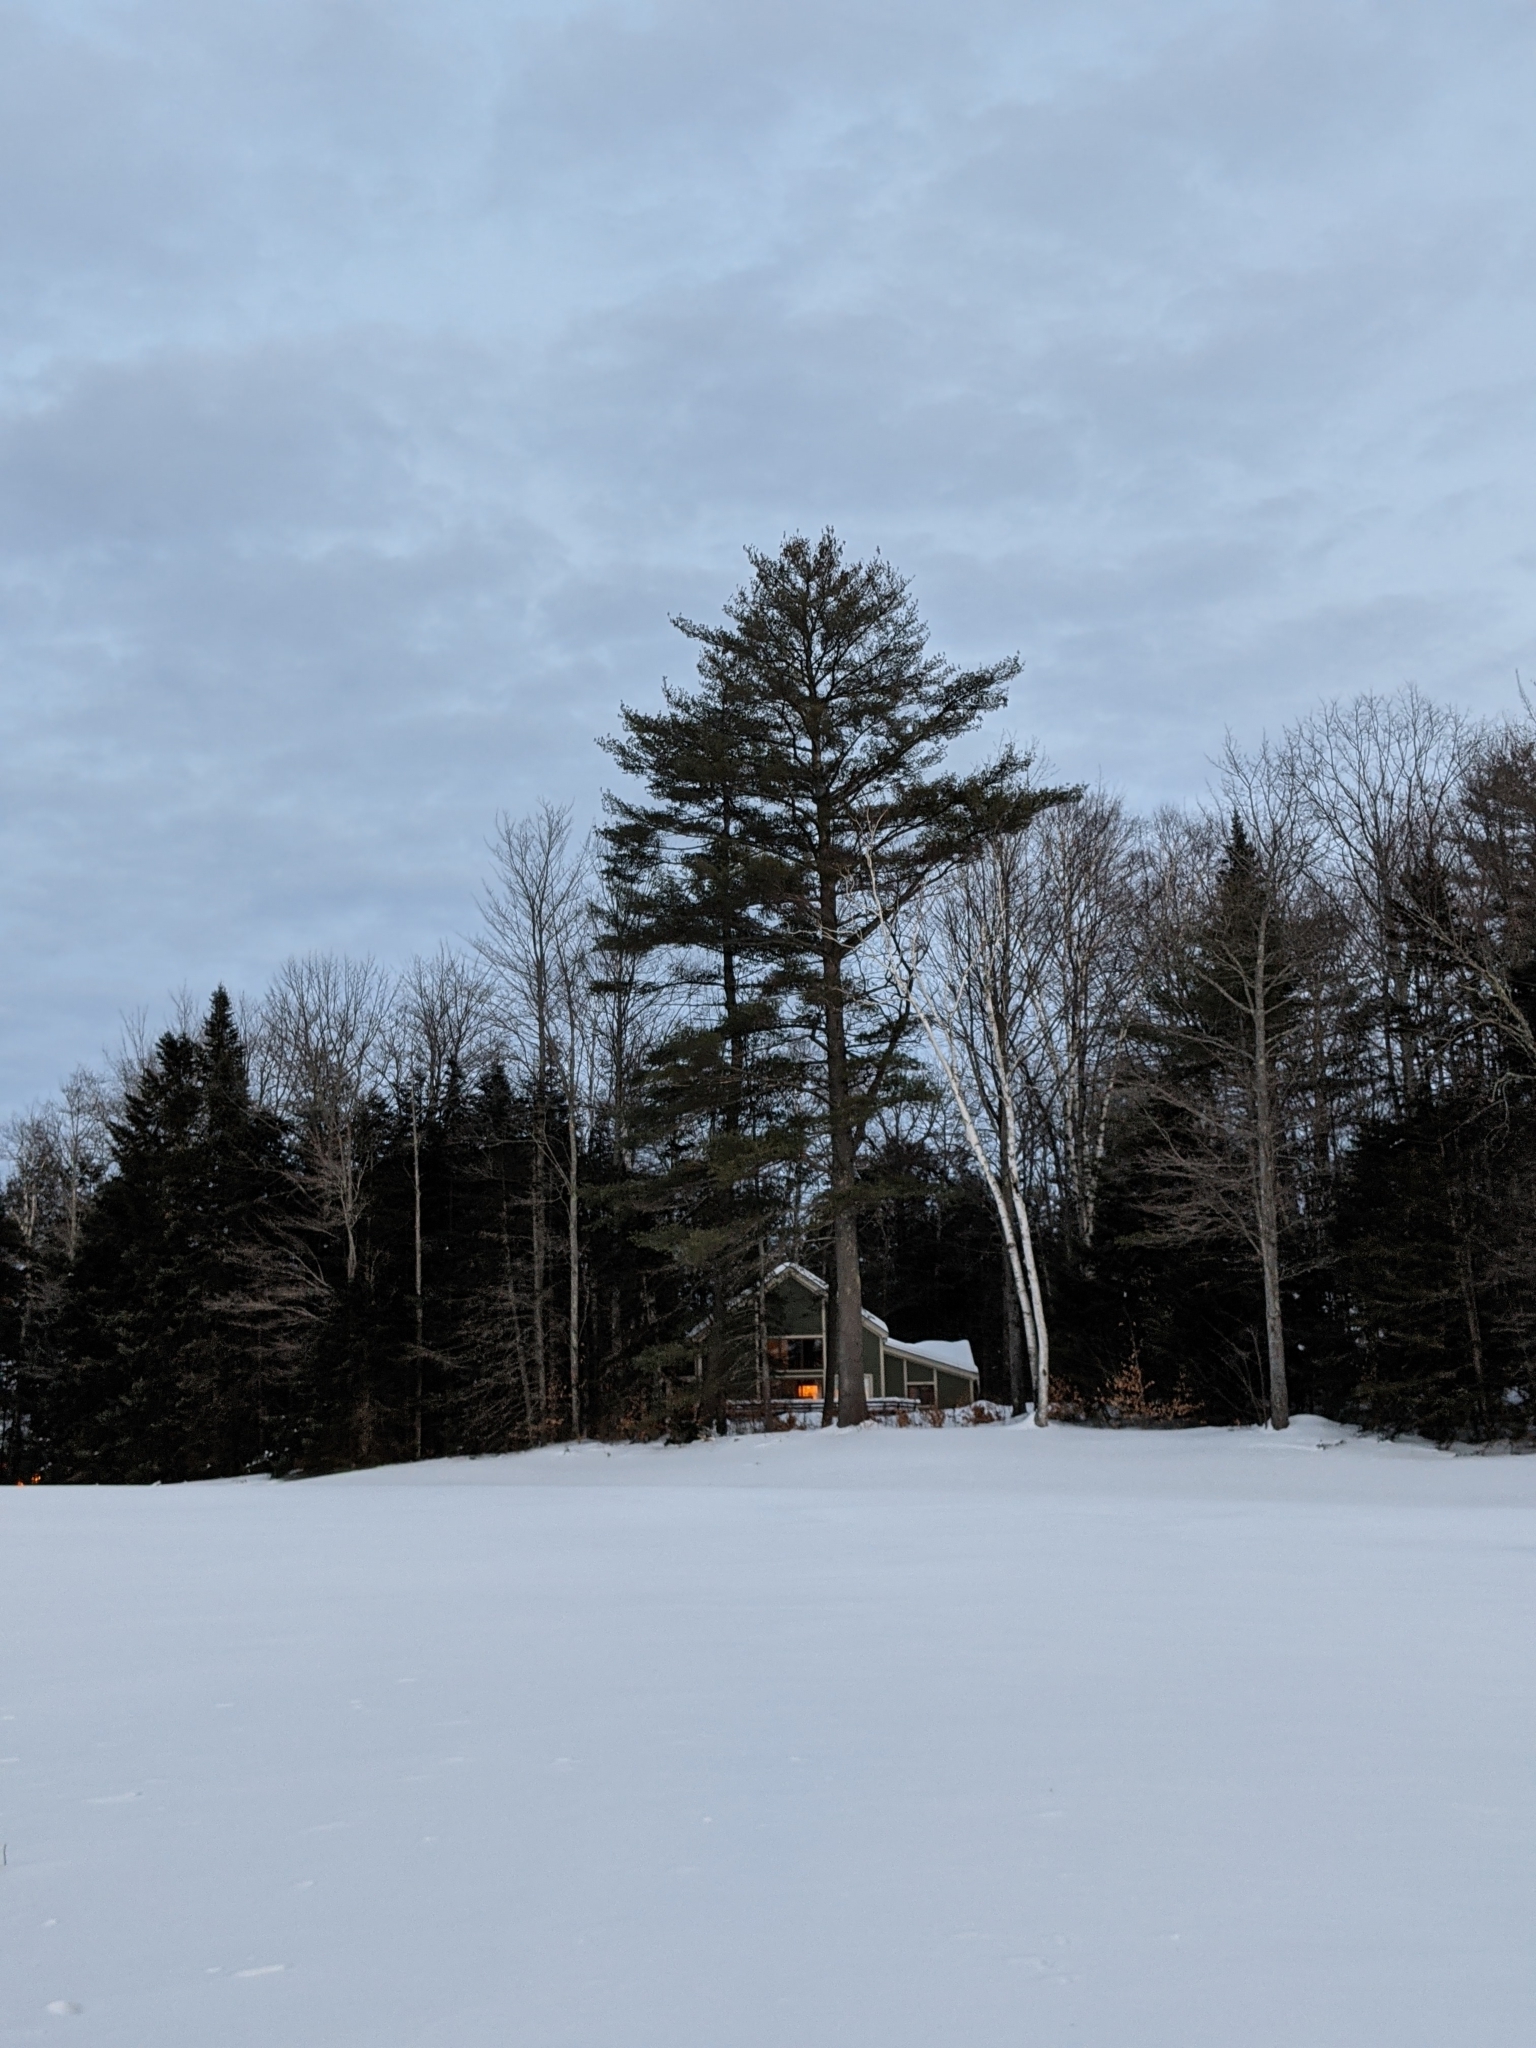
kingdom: Plantae
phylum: Tracheophyta
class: Pinopsida
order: Pinales
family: Pinaceae
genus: Pinus
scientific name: Pinus strobus
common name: Weymouth pine
